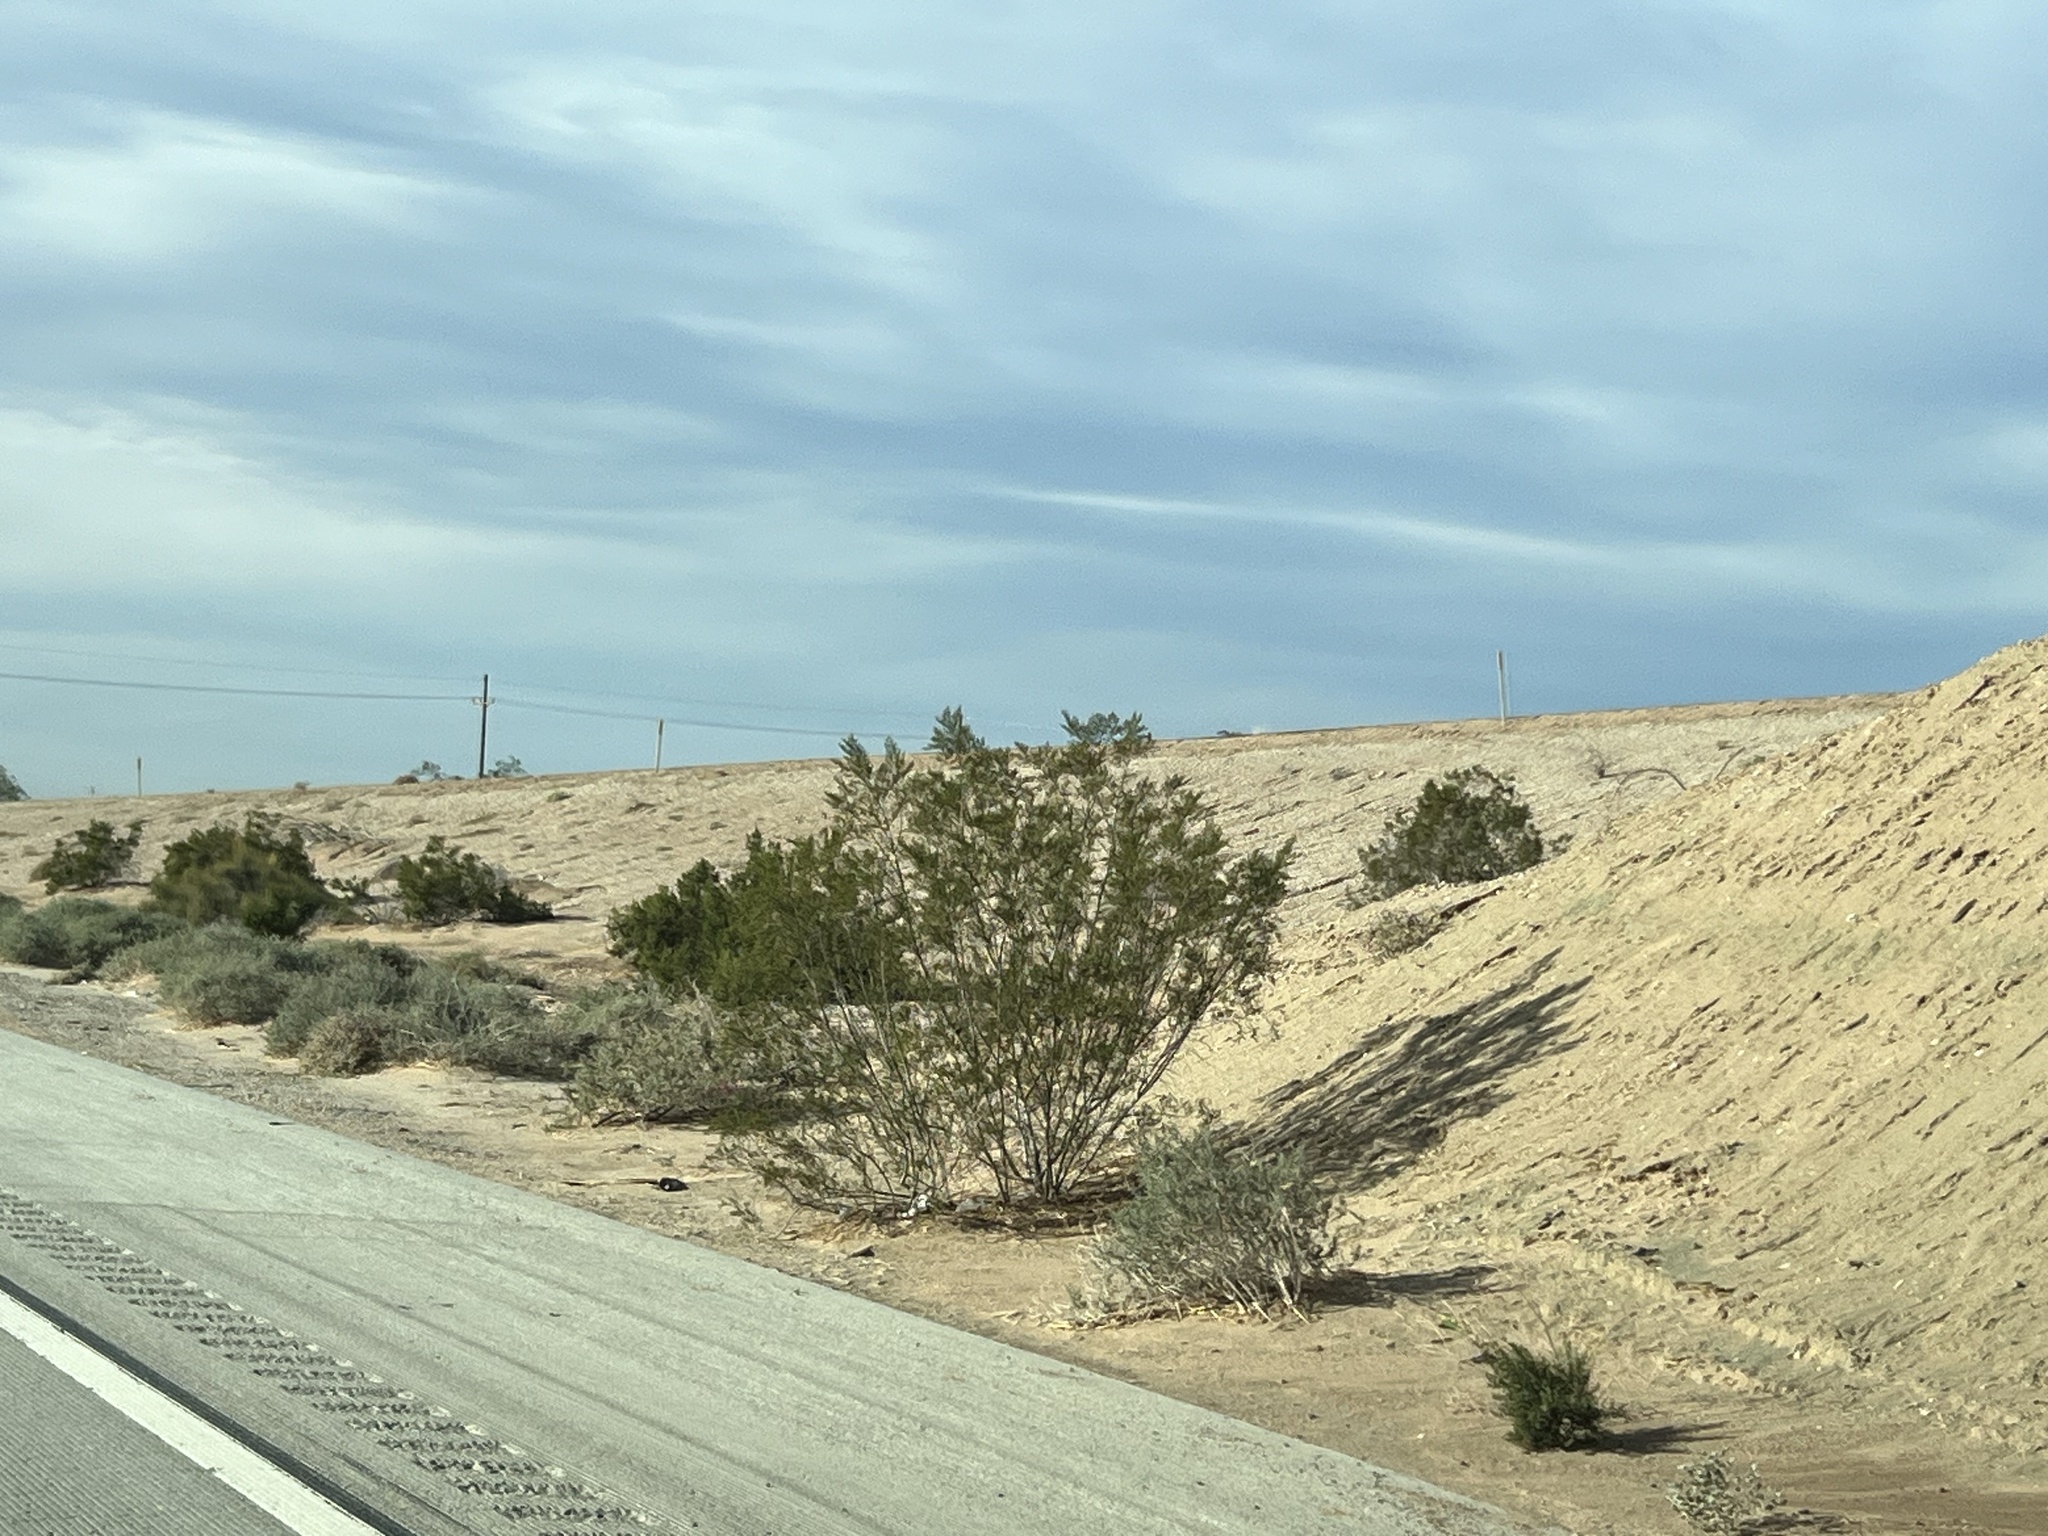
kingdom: Plantae
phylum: Tracheophyta
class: Magnoliopsida
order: Zygophyllales
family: Zygophyllaceae
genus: Larrea
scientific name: Larrea tridentata
